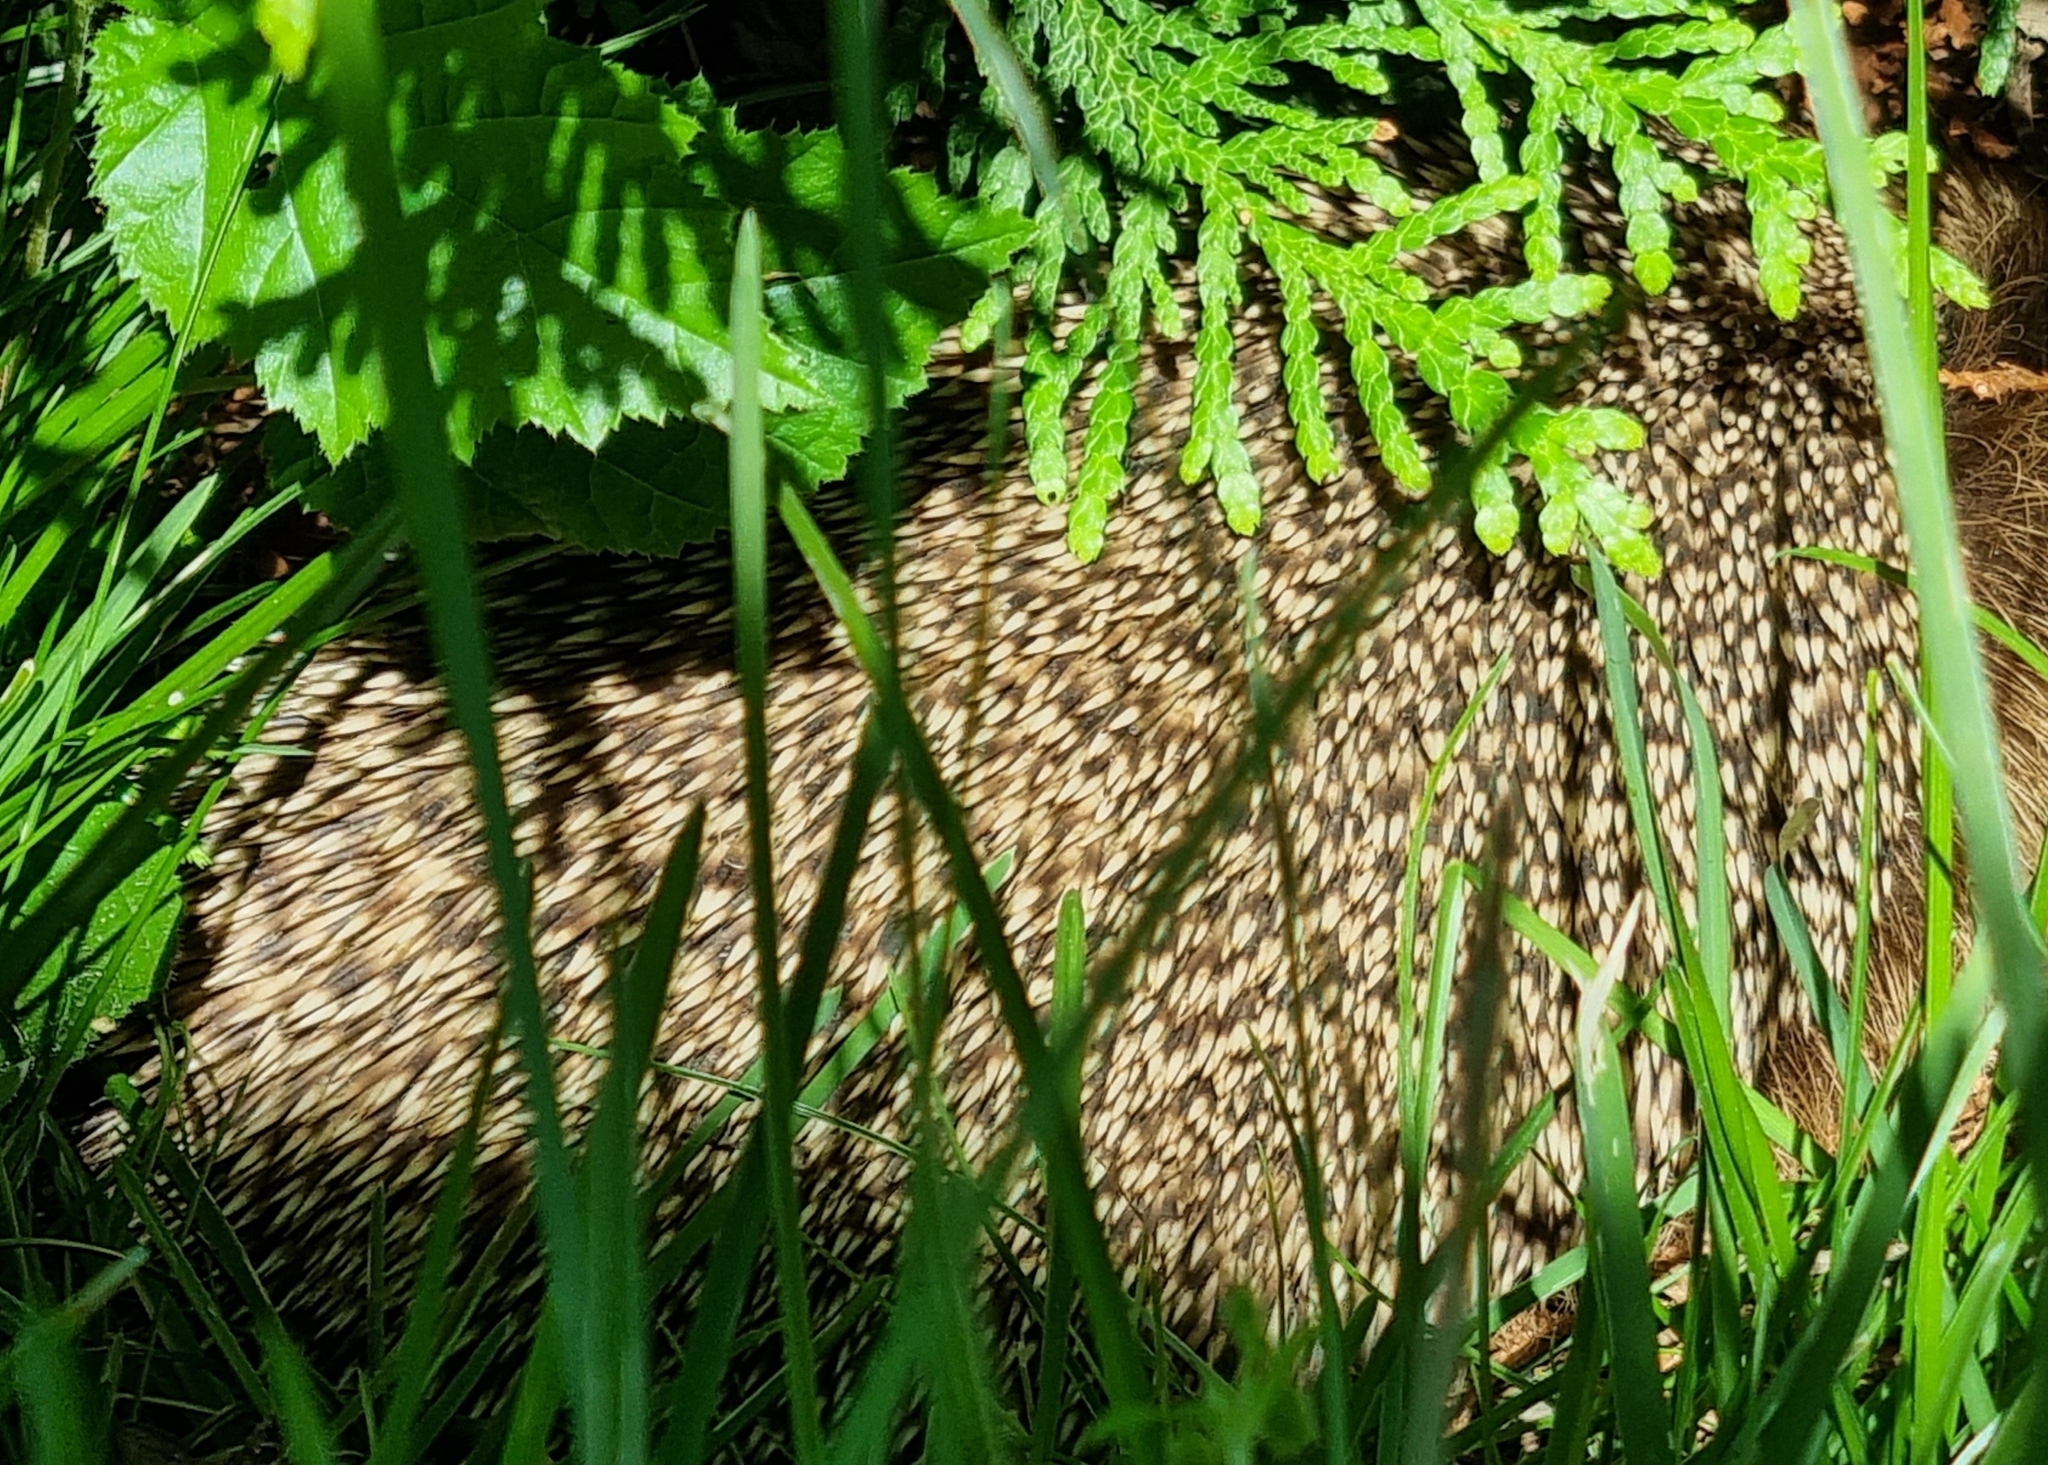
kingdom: Animalia
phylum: Chordata
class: Mammalia
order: Erinaceomorpha
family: Erinaceidae
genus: Erinaceus
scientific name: Erinaceus europaeus
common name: West european hedgehog
